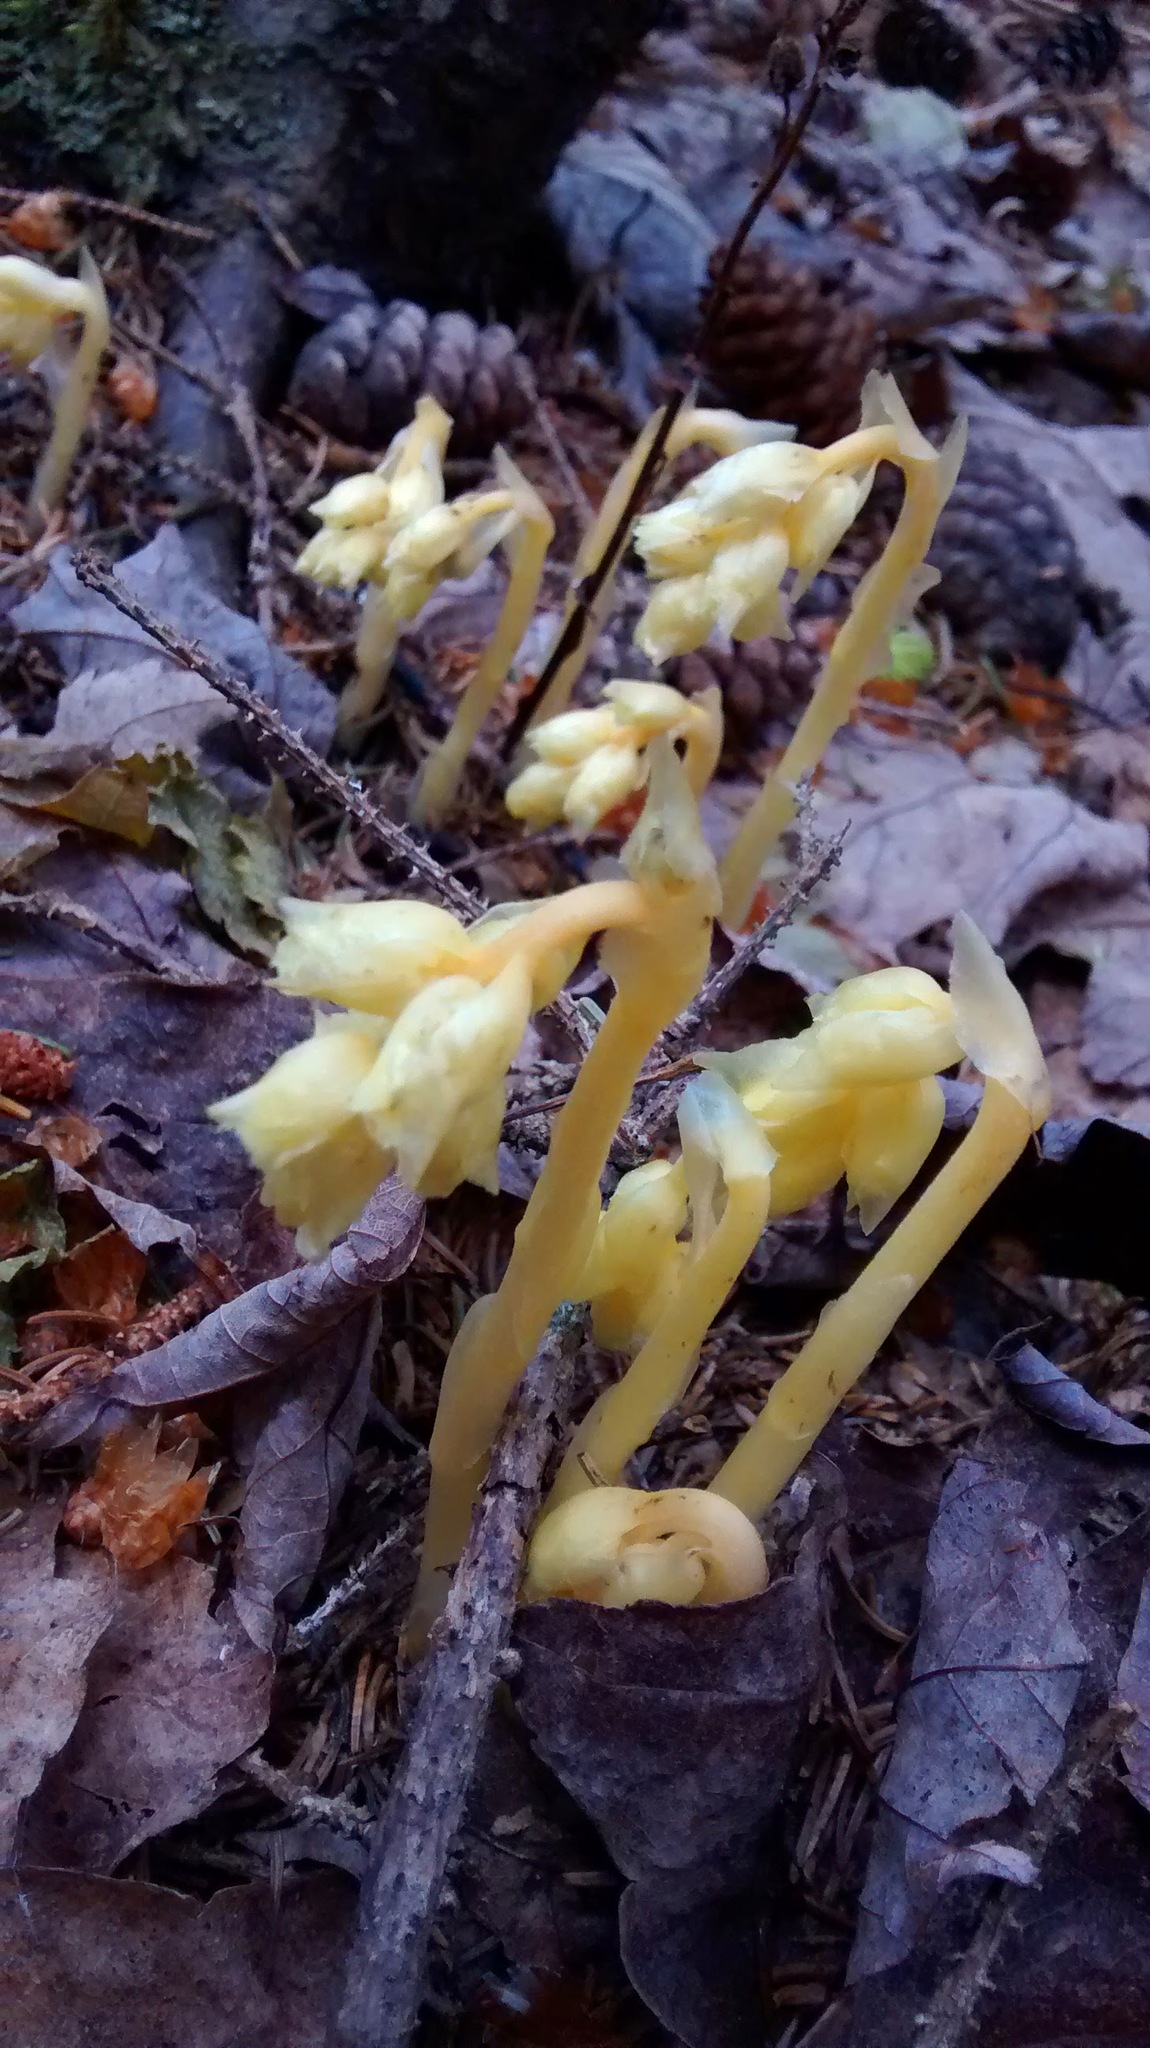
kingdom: Plantae
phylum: Tracheophyta
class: Magnoliopsida
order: Ericales
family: Ericaceae
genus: Hypopitys
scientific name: Hypopitys monotropa
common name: Yellow bird's-nest
